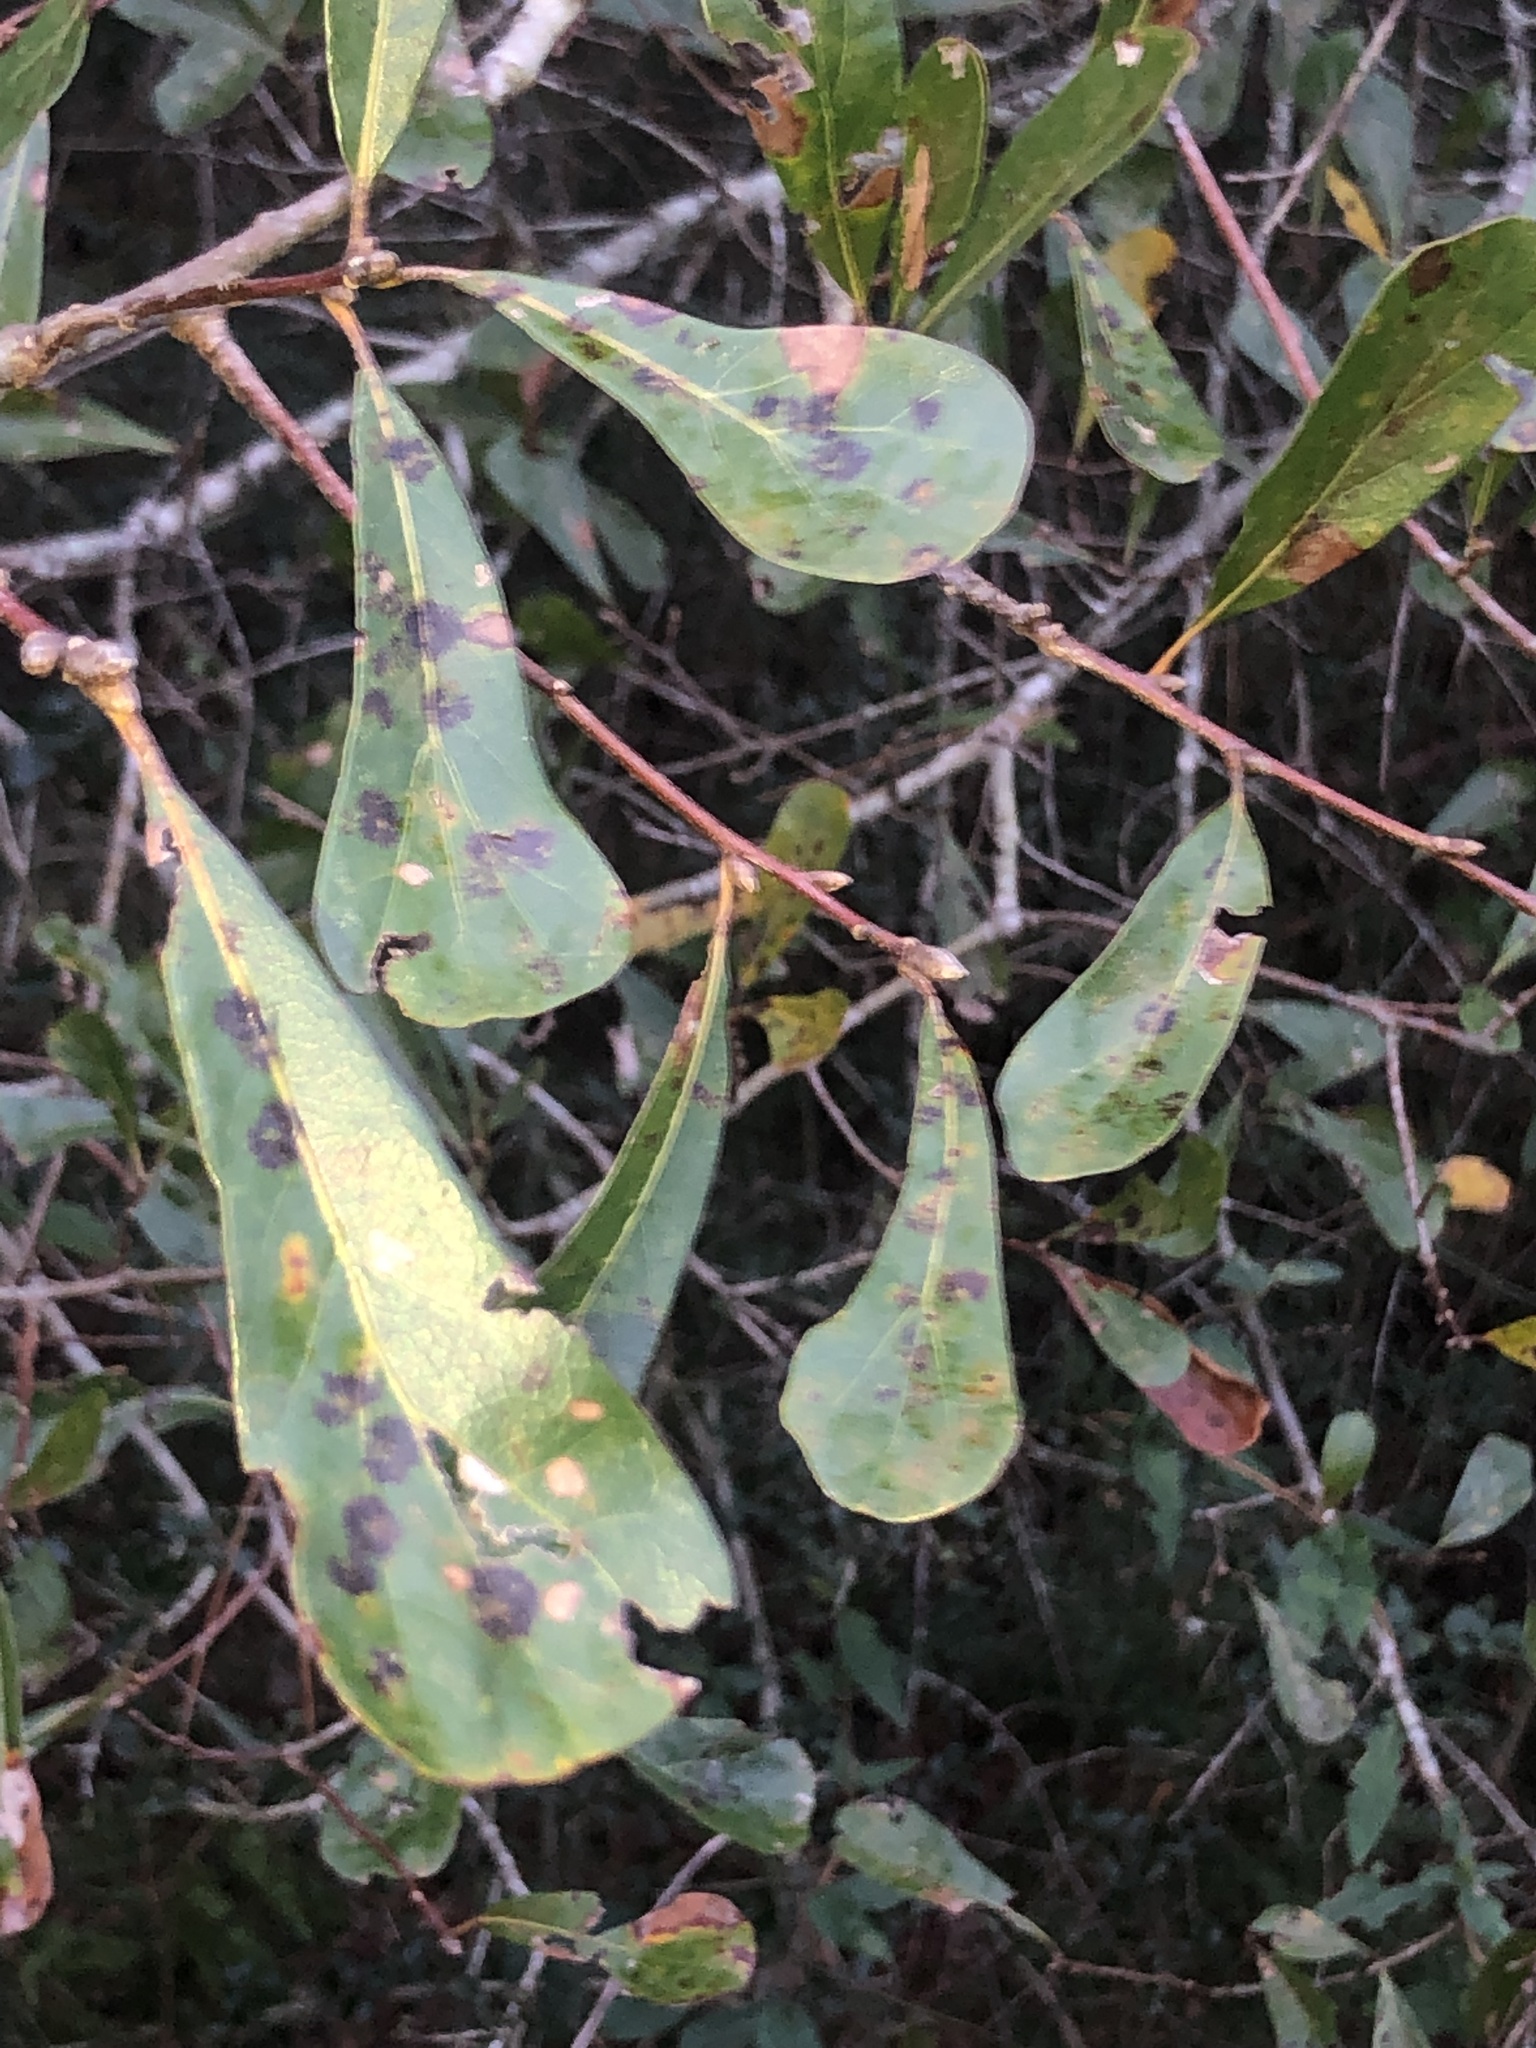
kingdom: Plantae
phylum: Tracheophyta
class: Magnoliopsida
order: Fagales
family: Fagaceae
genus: Quercus
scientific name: Quercus nigra
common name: Water oak
